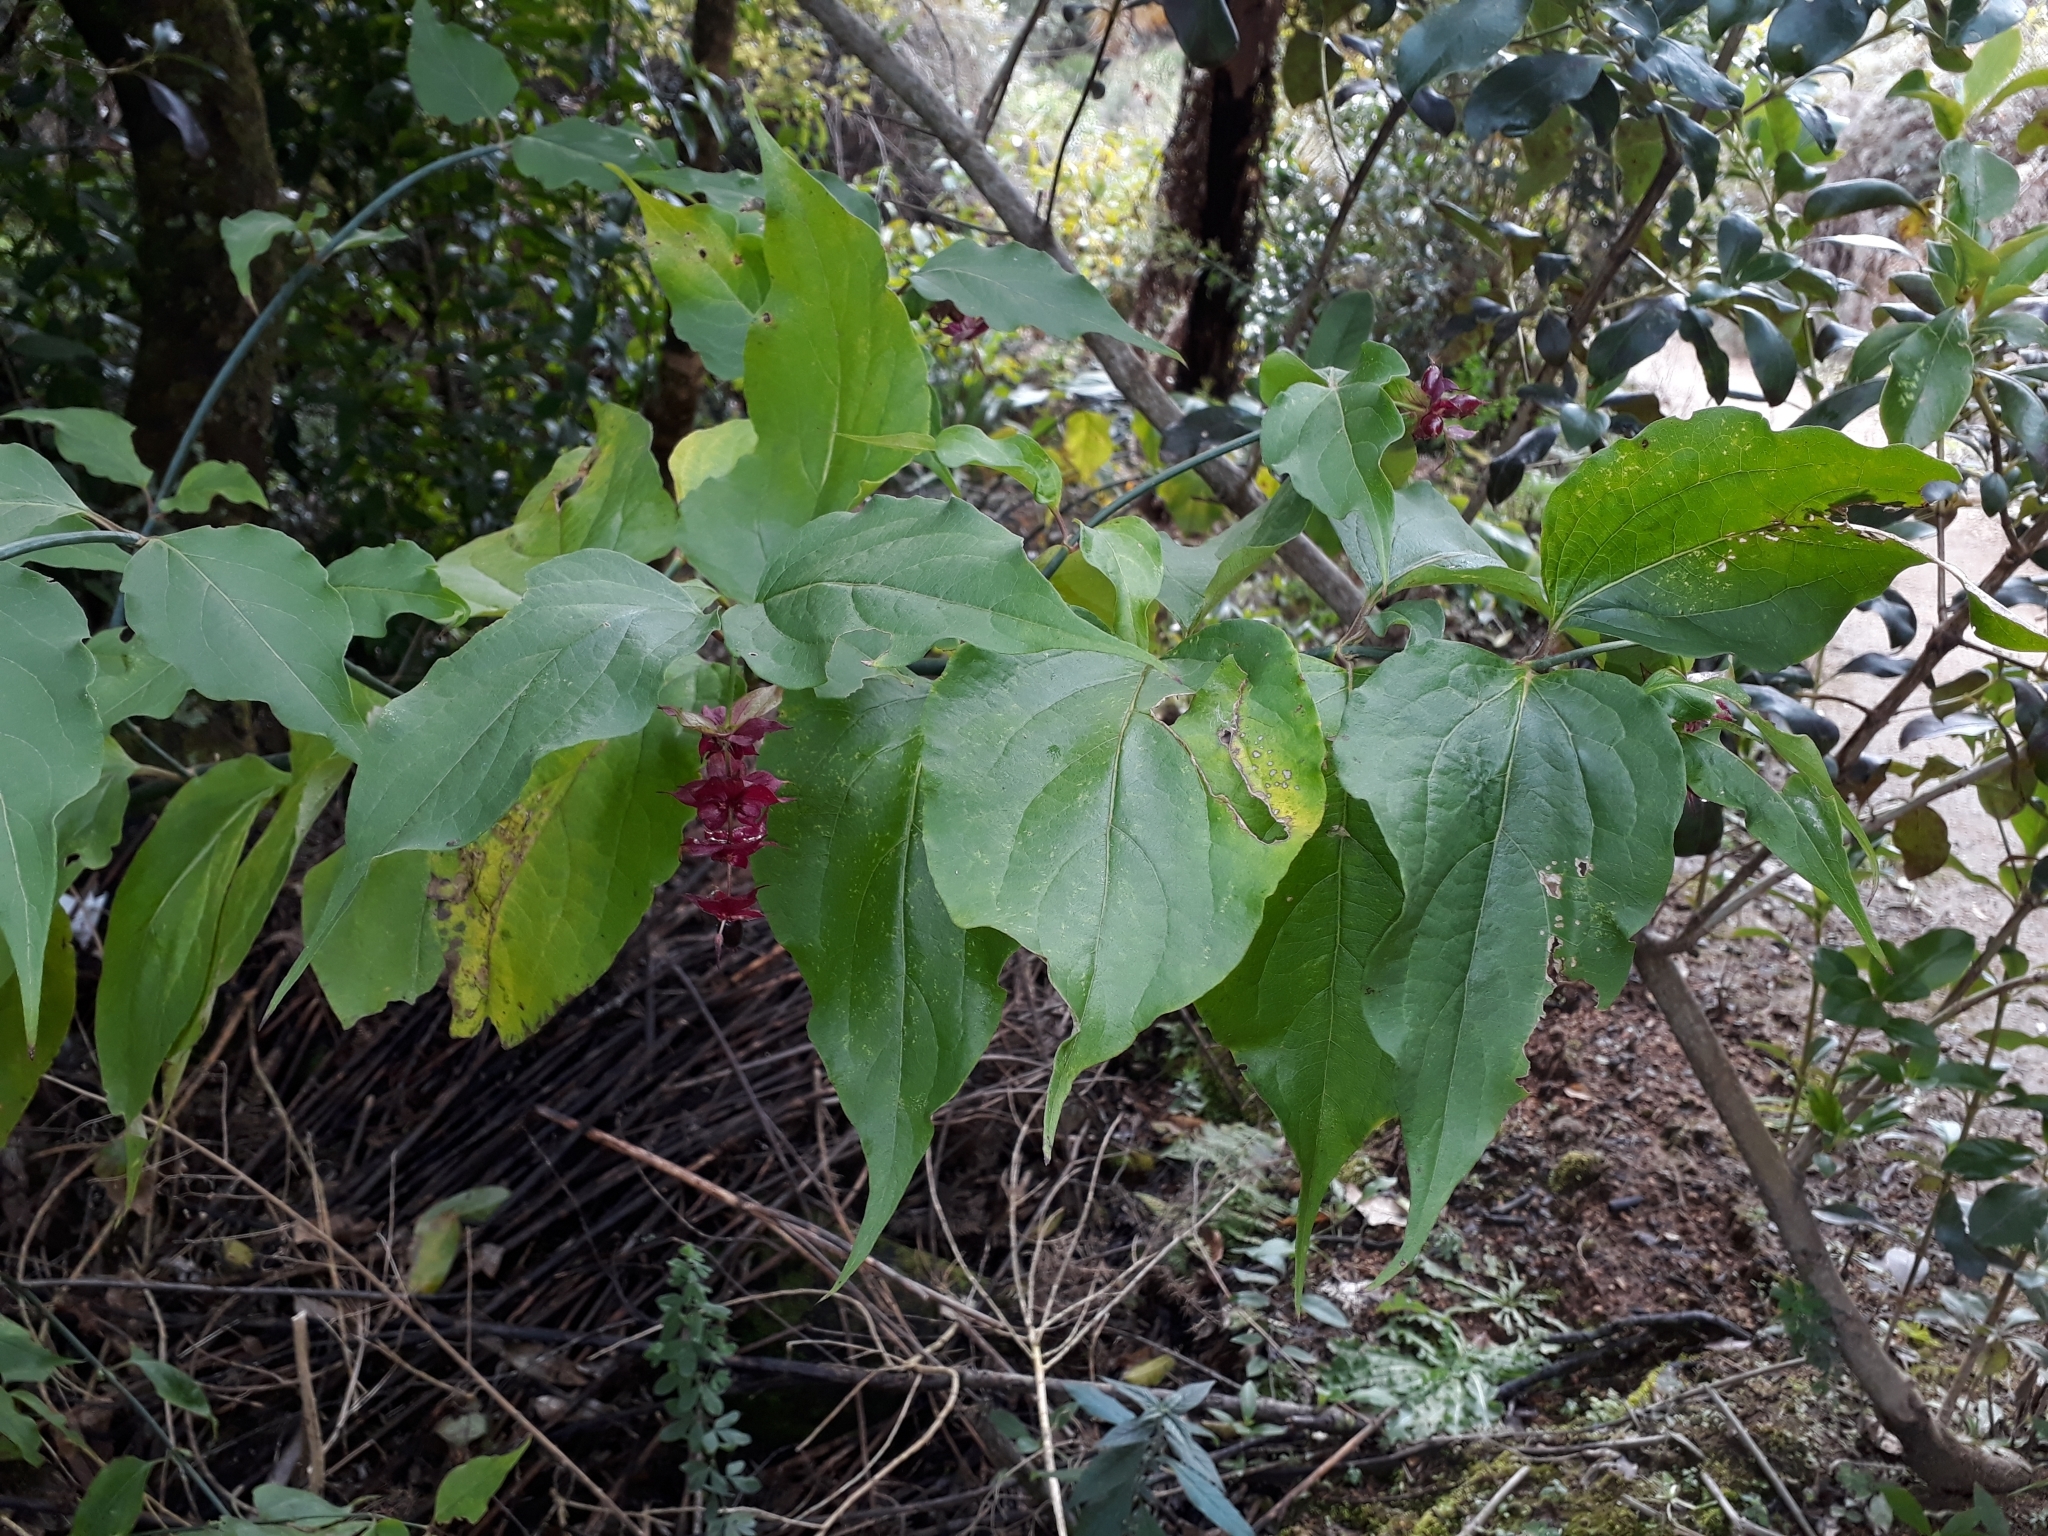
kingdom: Plantae
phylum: Tracheophyta
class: Magnoliopsida
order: Dipsacales
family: Caprifoliaceae
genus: Leycesteria
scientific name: Leycesteria formosa
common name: Himalayan honeysuckle
